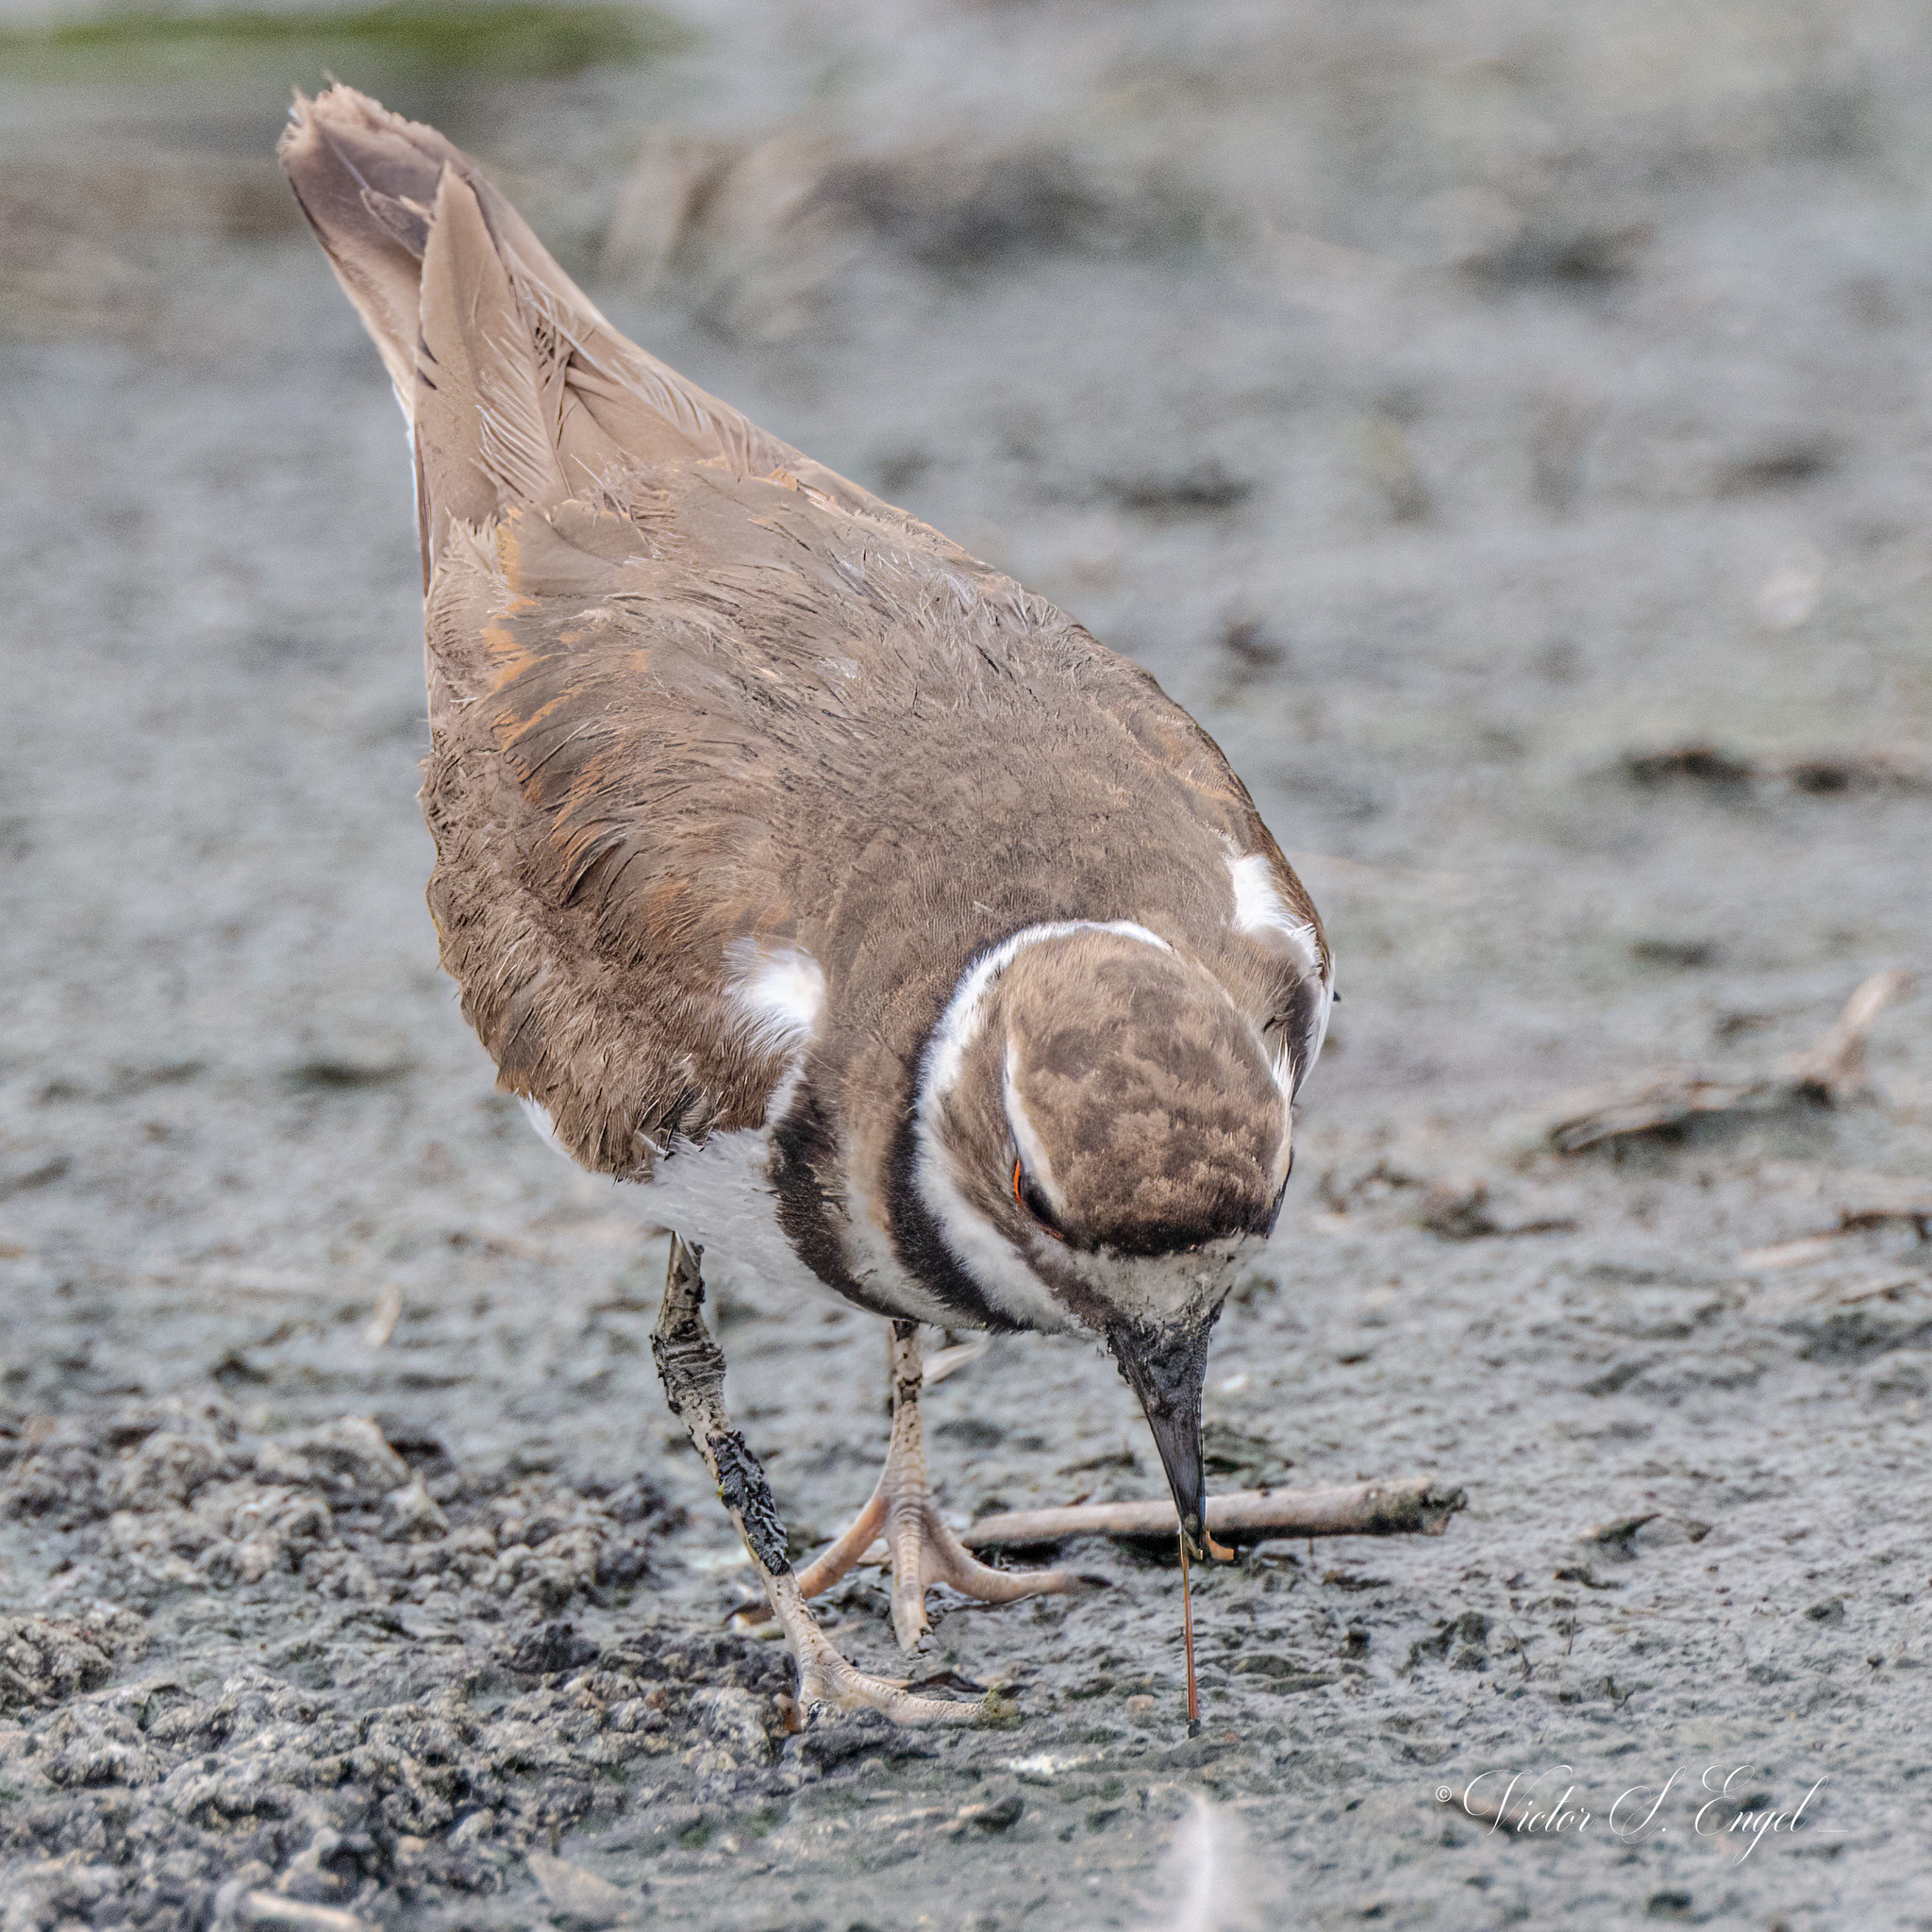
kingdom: Animalia
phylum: Chordata
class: Aves
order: Charadriiformes
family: Charadriidae
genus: Charadrius
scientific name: Charadrius vociferus
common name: Killdeer
